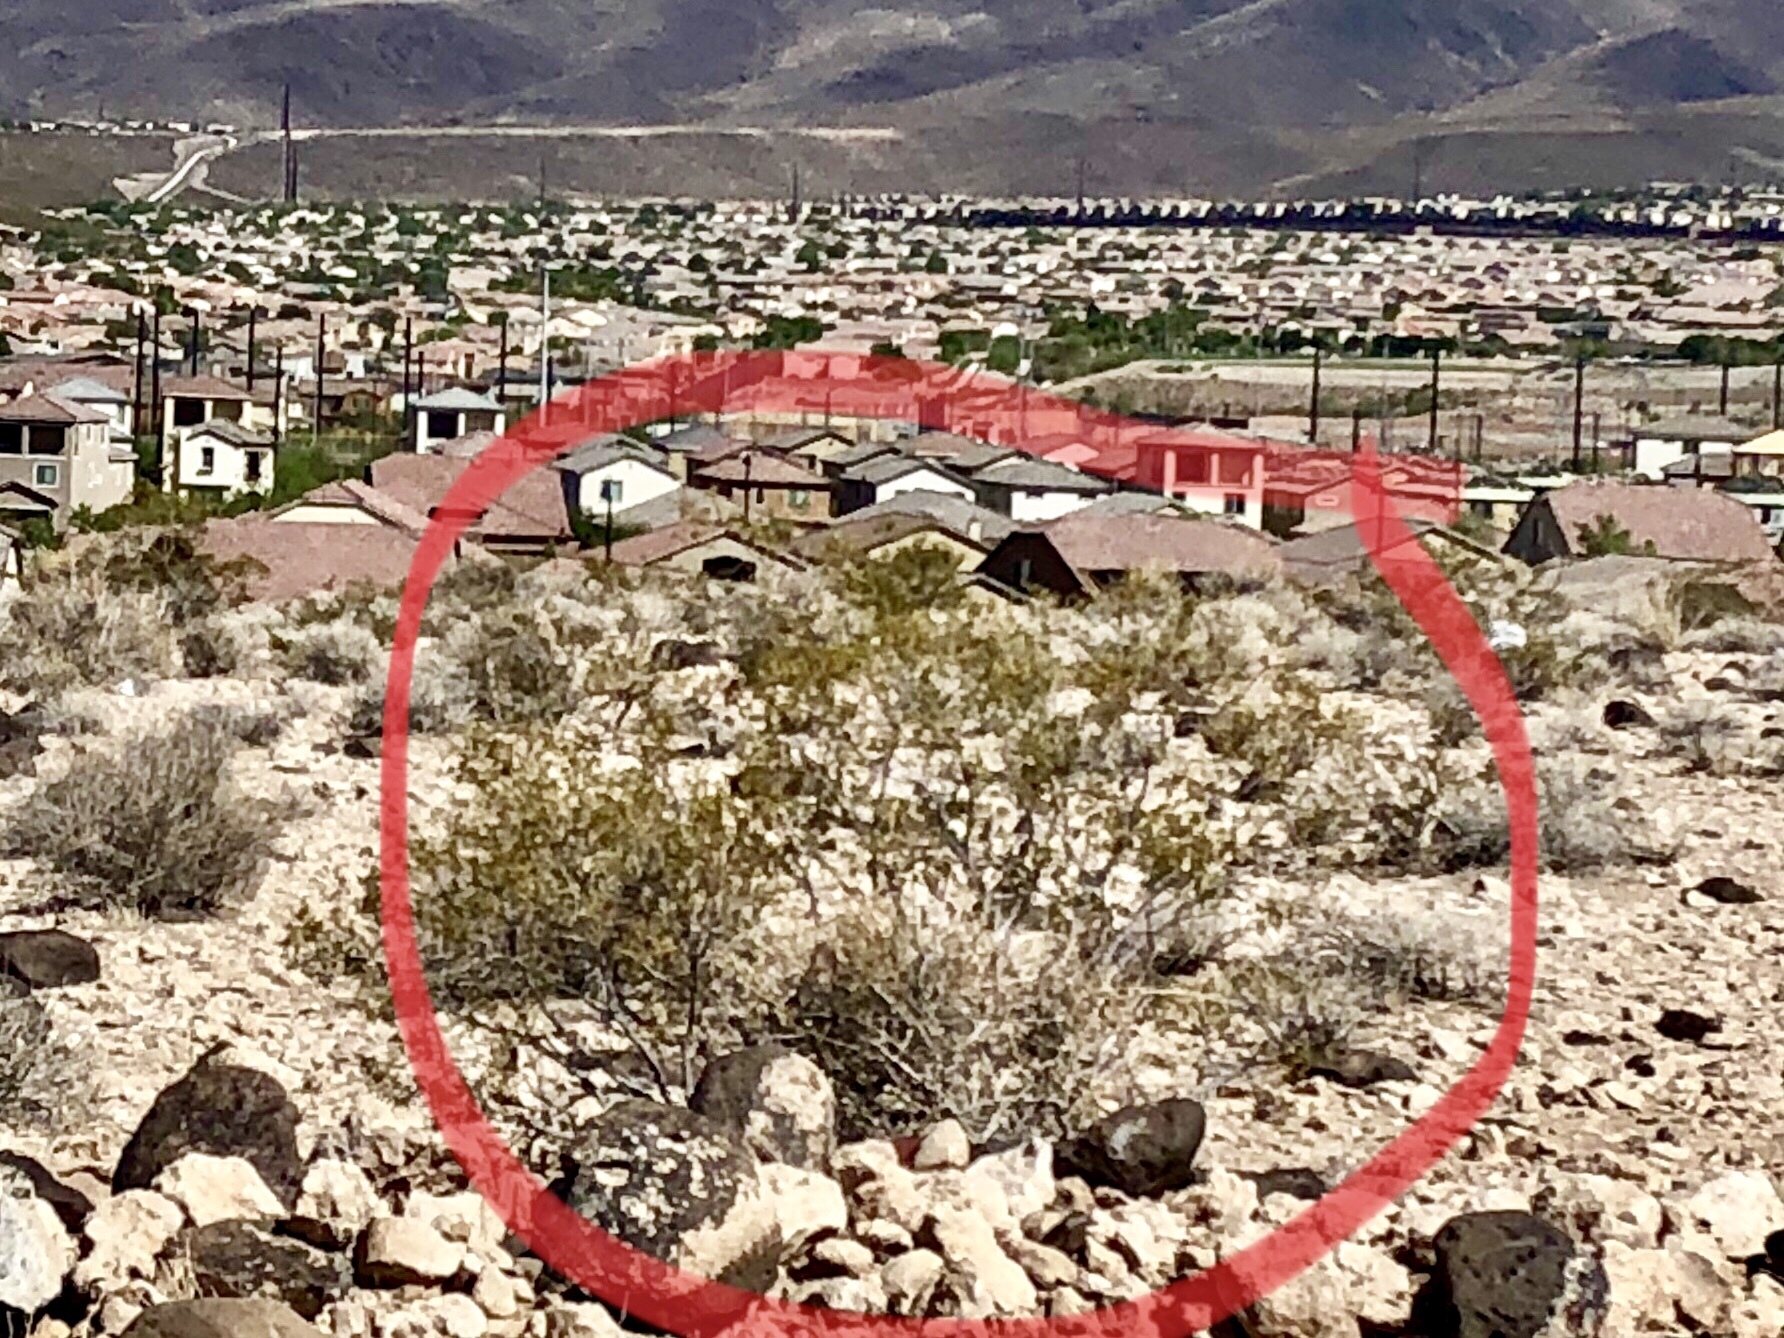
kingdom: Plantae
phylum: Tracheophyta
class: Magnoliopsida
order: Zygophyllales
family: Zygophyllaceae
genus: Larrea
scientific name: Larrea tridentata
